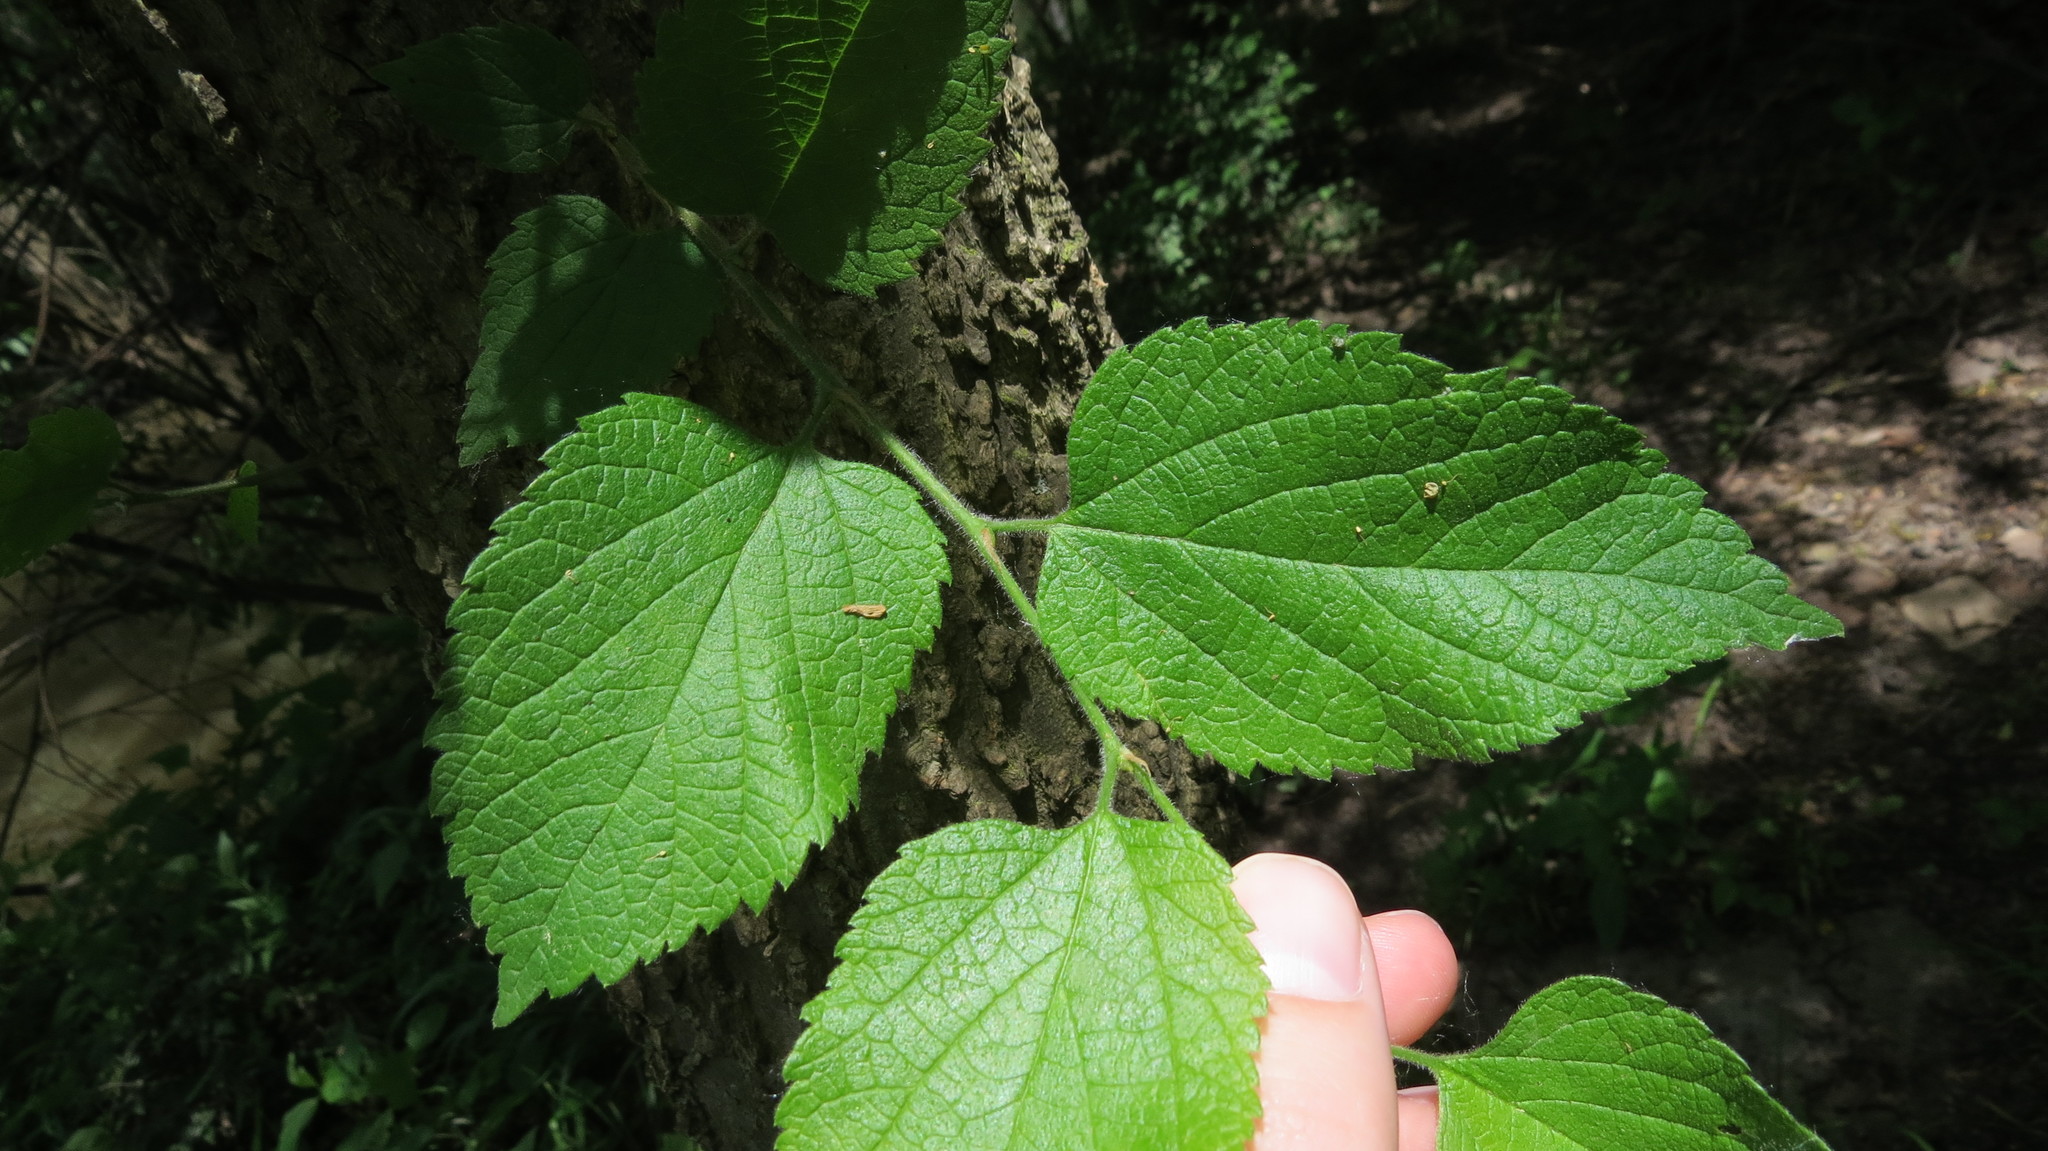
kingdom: Plantae
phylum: Tracheophyta
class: Magnoliopsida
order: Rosales
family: Cannabaceae
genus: Celtis
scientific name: Celtis occidentalis
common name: Common hackberry
